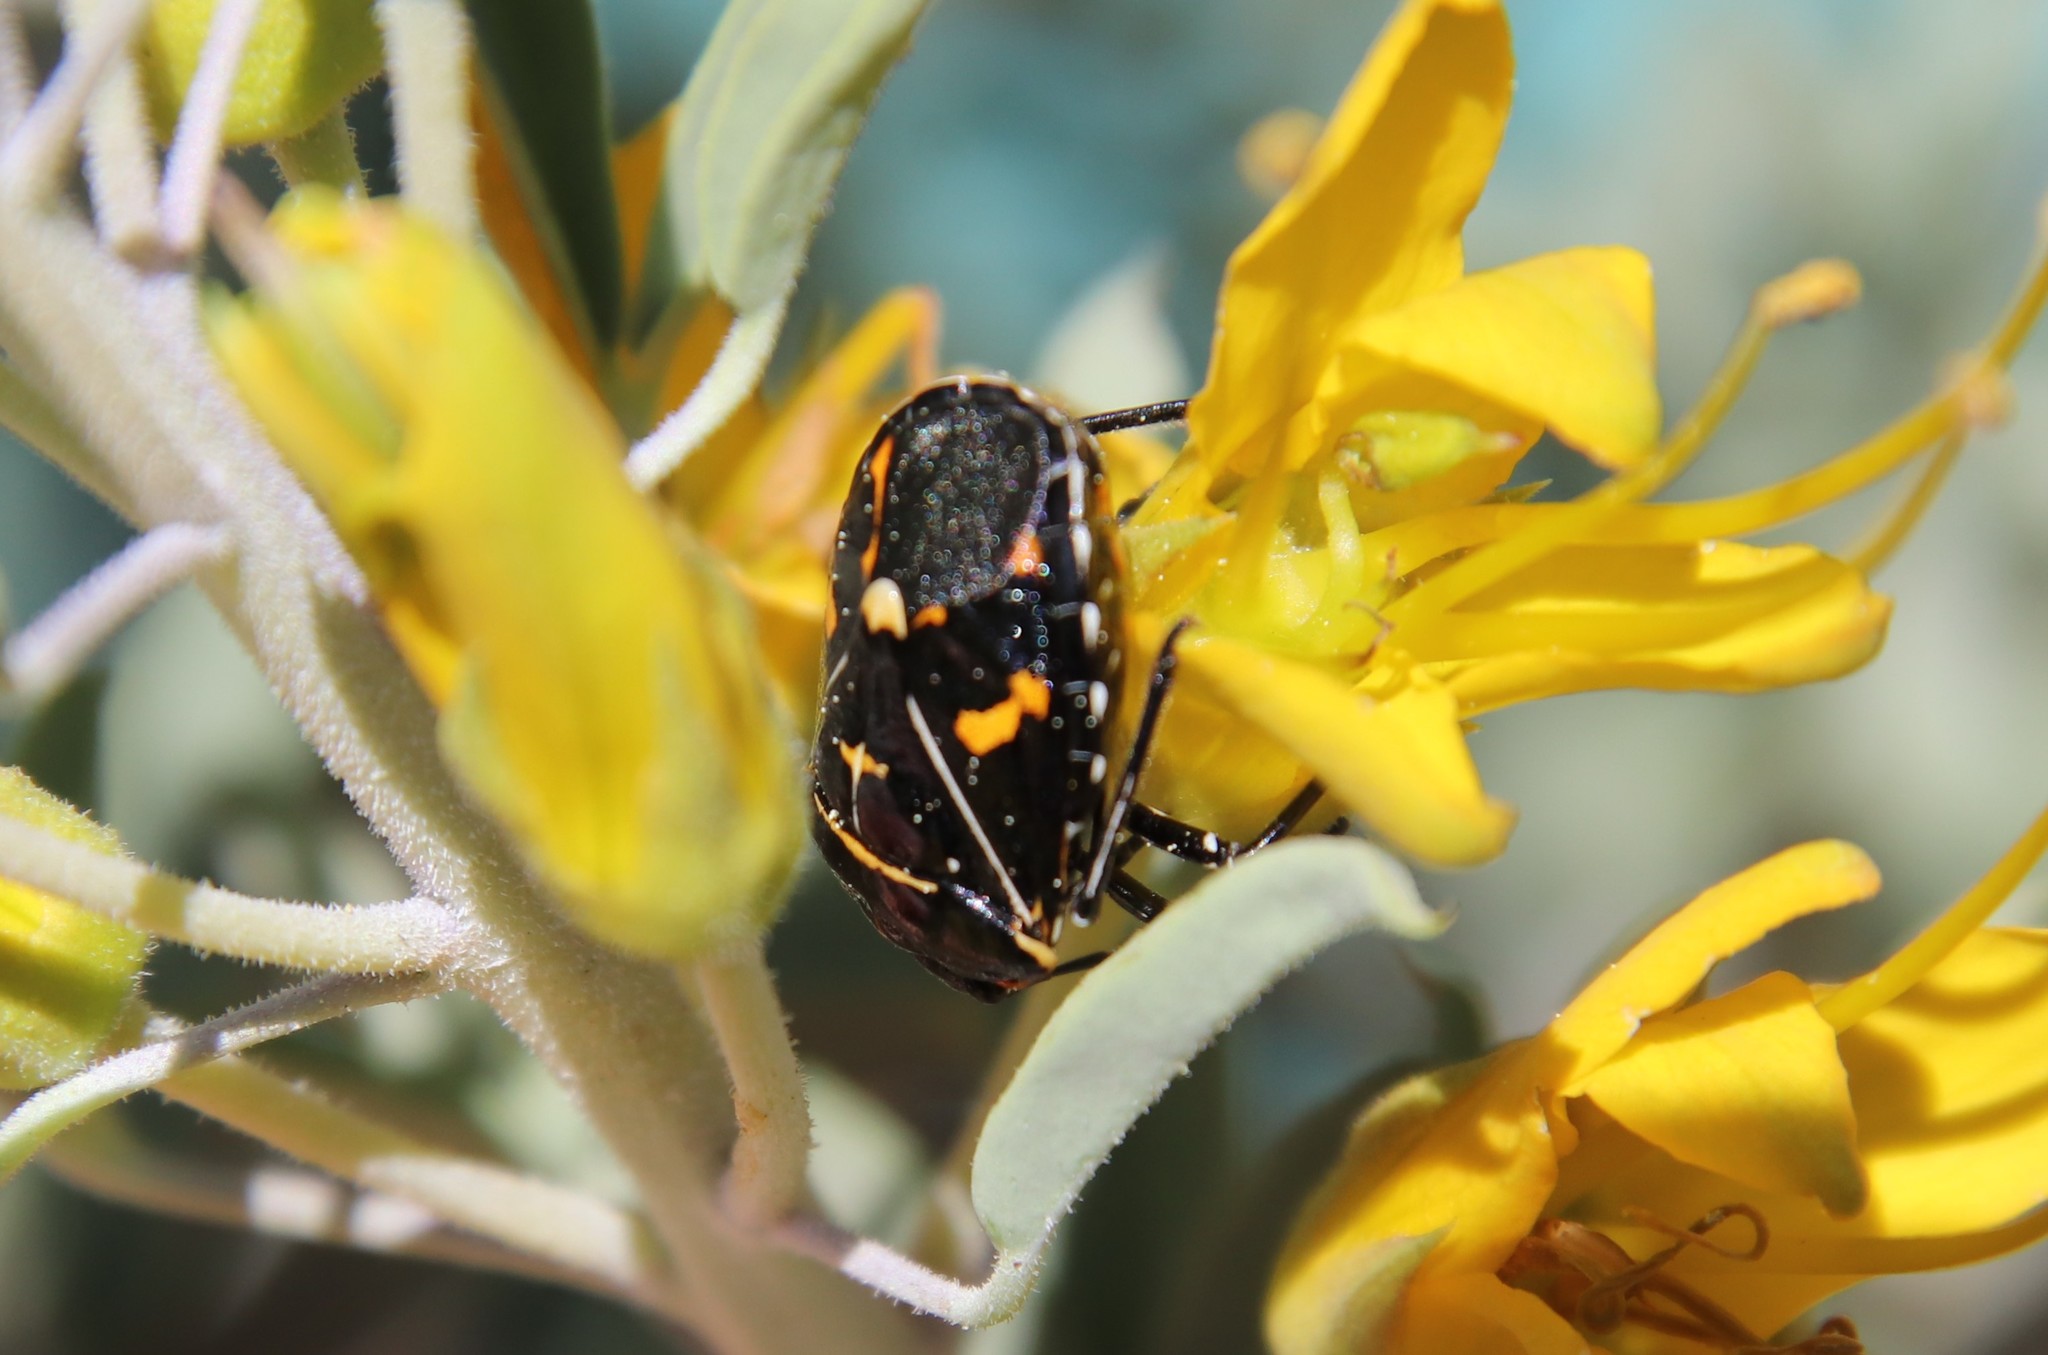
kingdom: Animalia
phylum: Arthropoda
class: Insecta
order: Hemiptera
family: Pentatomidae
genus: Murgantia
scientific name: Murgantia histrionica
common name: Harlequin bug
